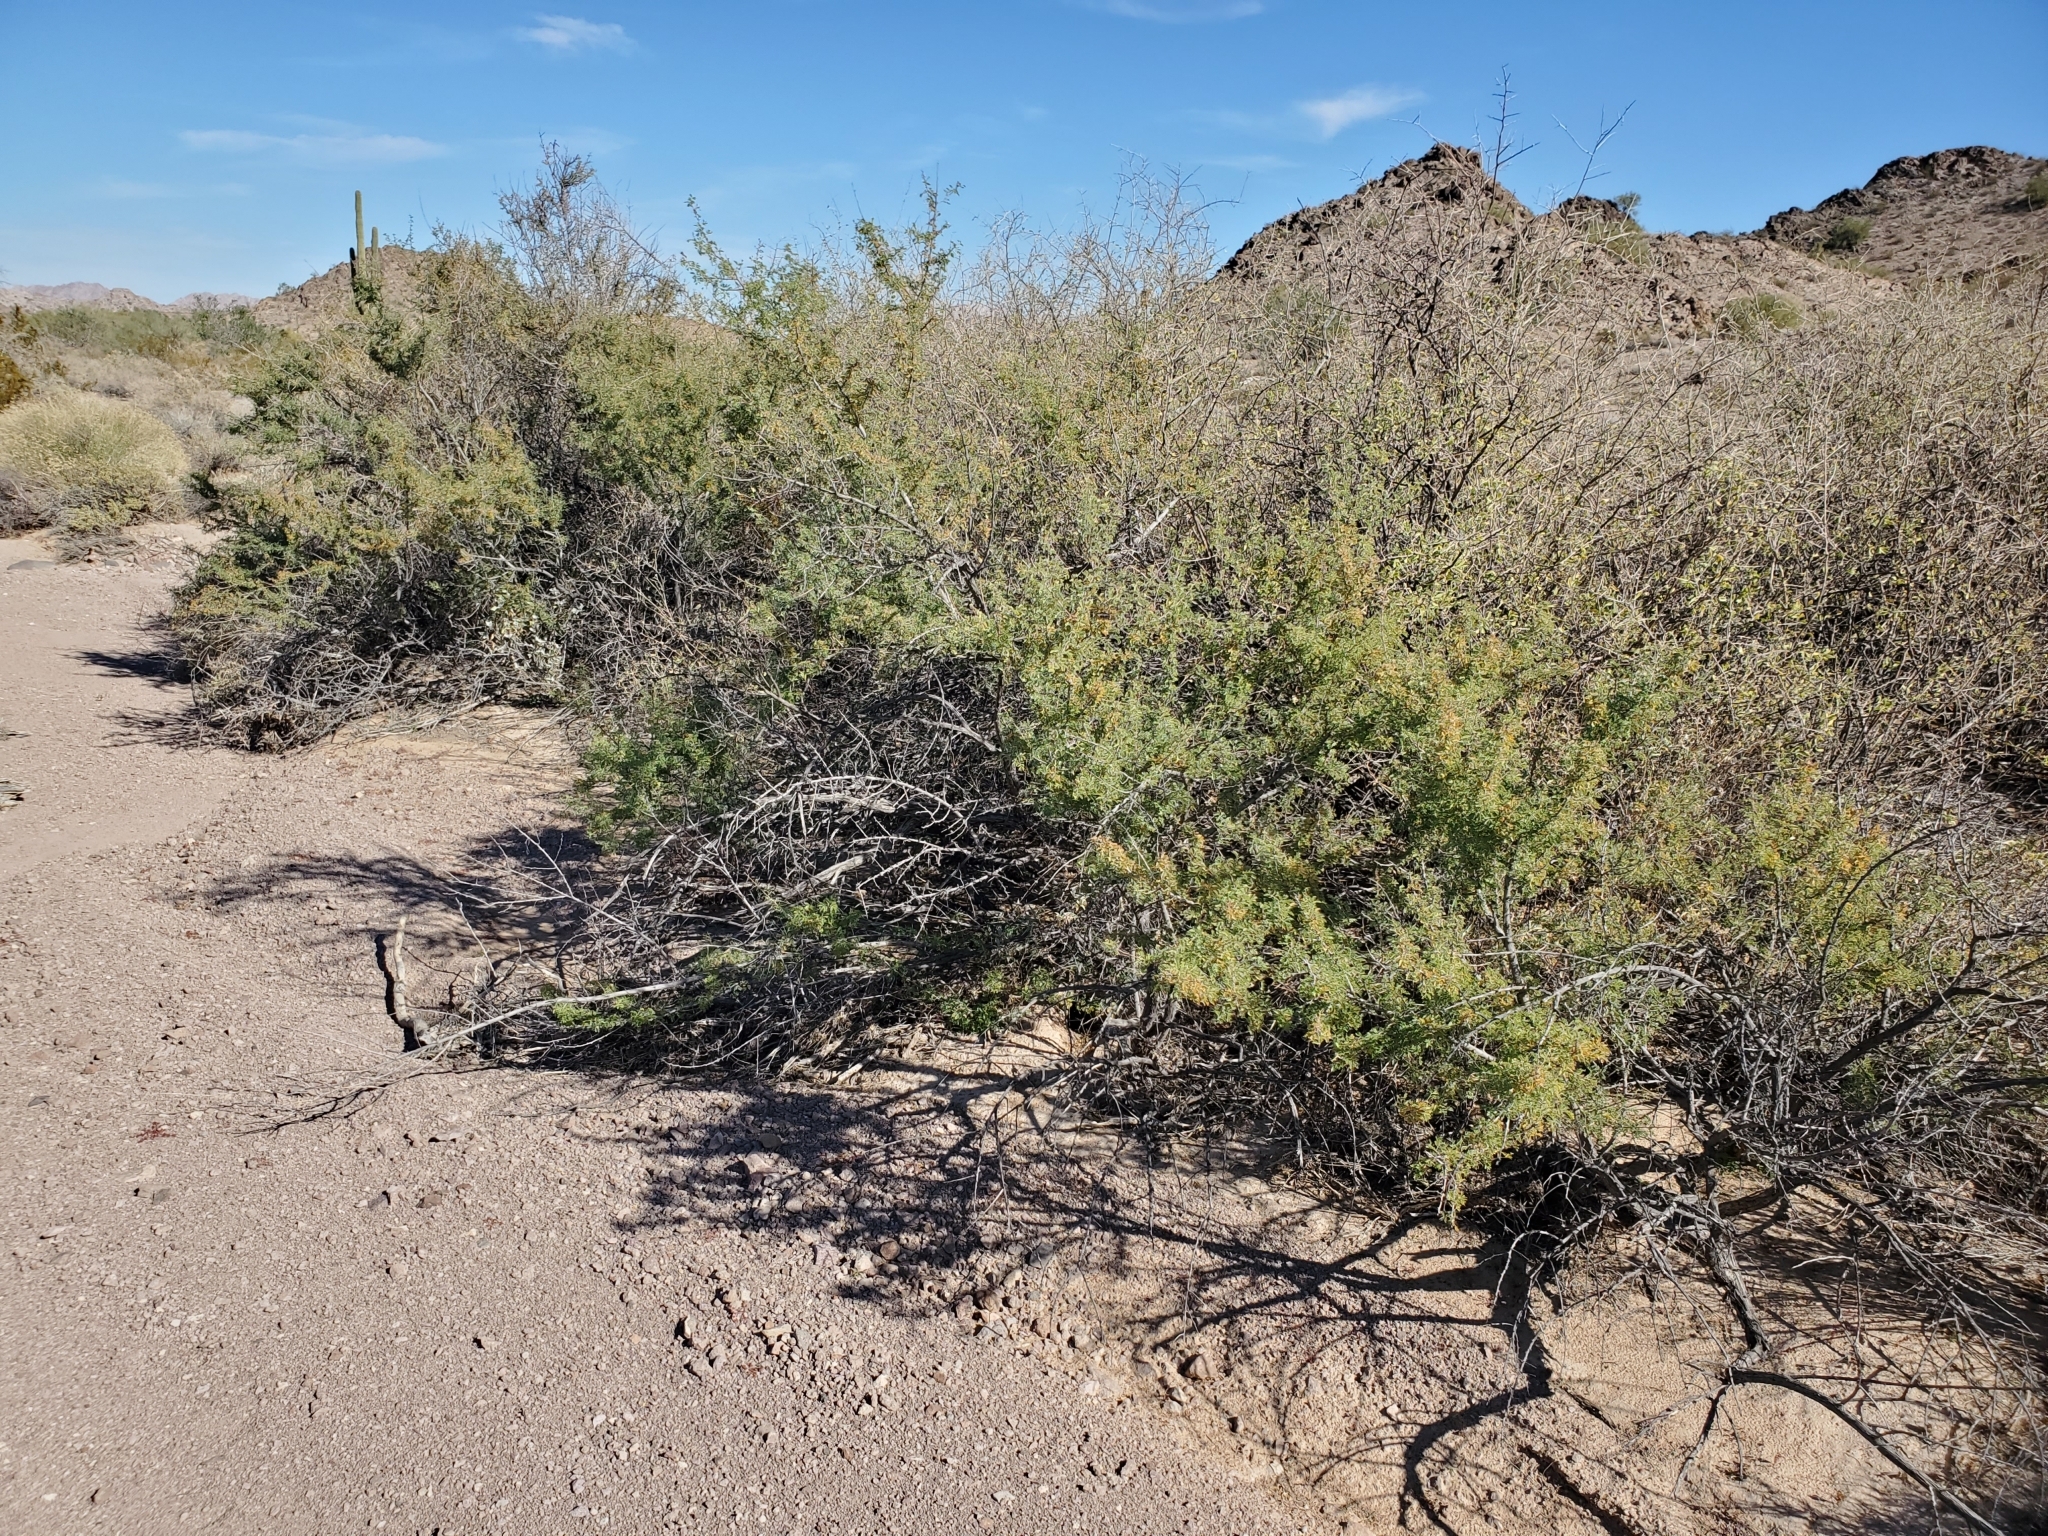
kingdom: Plantae
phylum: Tracheophyta
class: Magnoliopsida
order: Fabales
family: Fabaceae
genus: Senegalia
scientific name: Senegalia greggii
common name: Texas-mimosa
